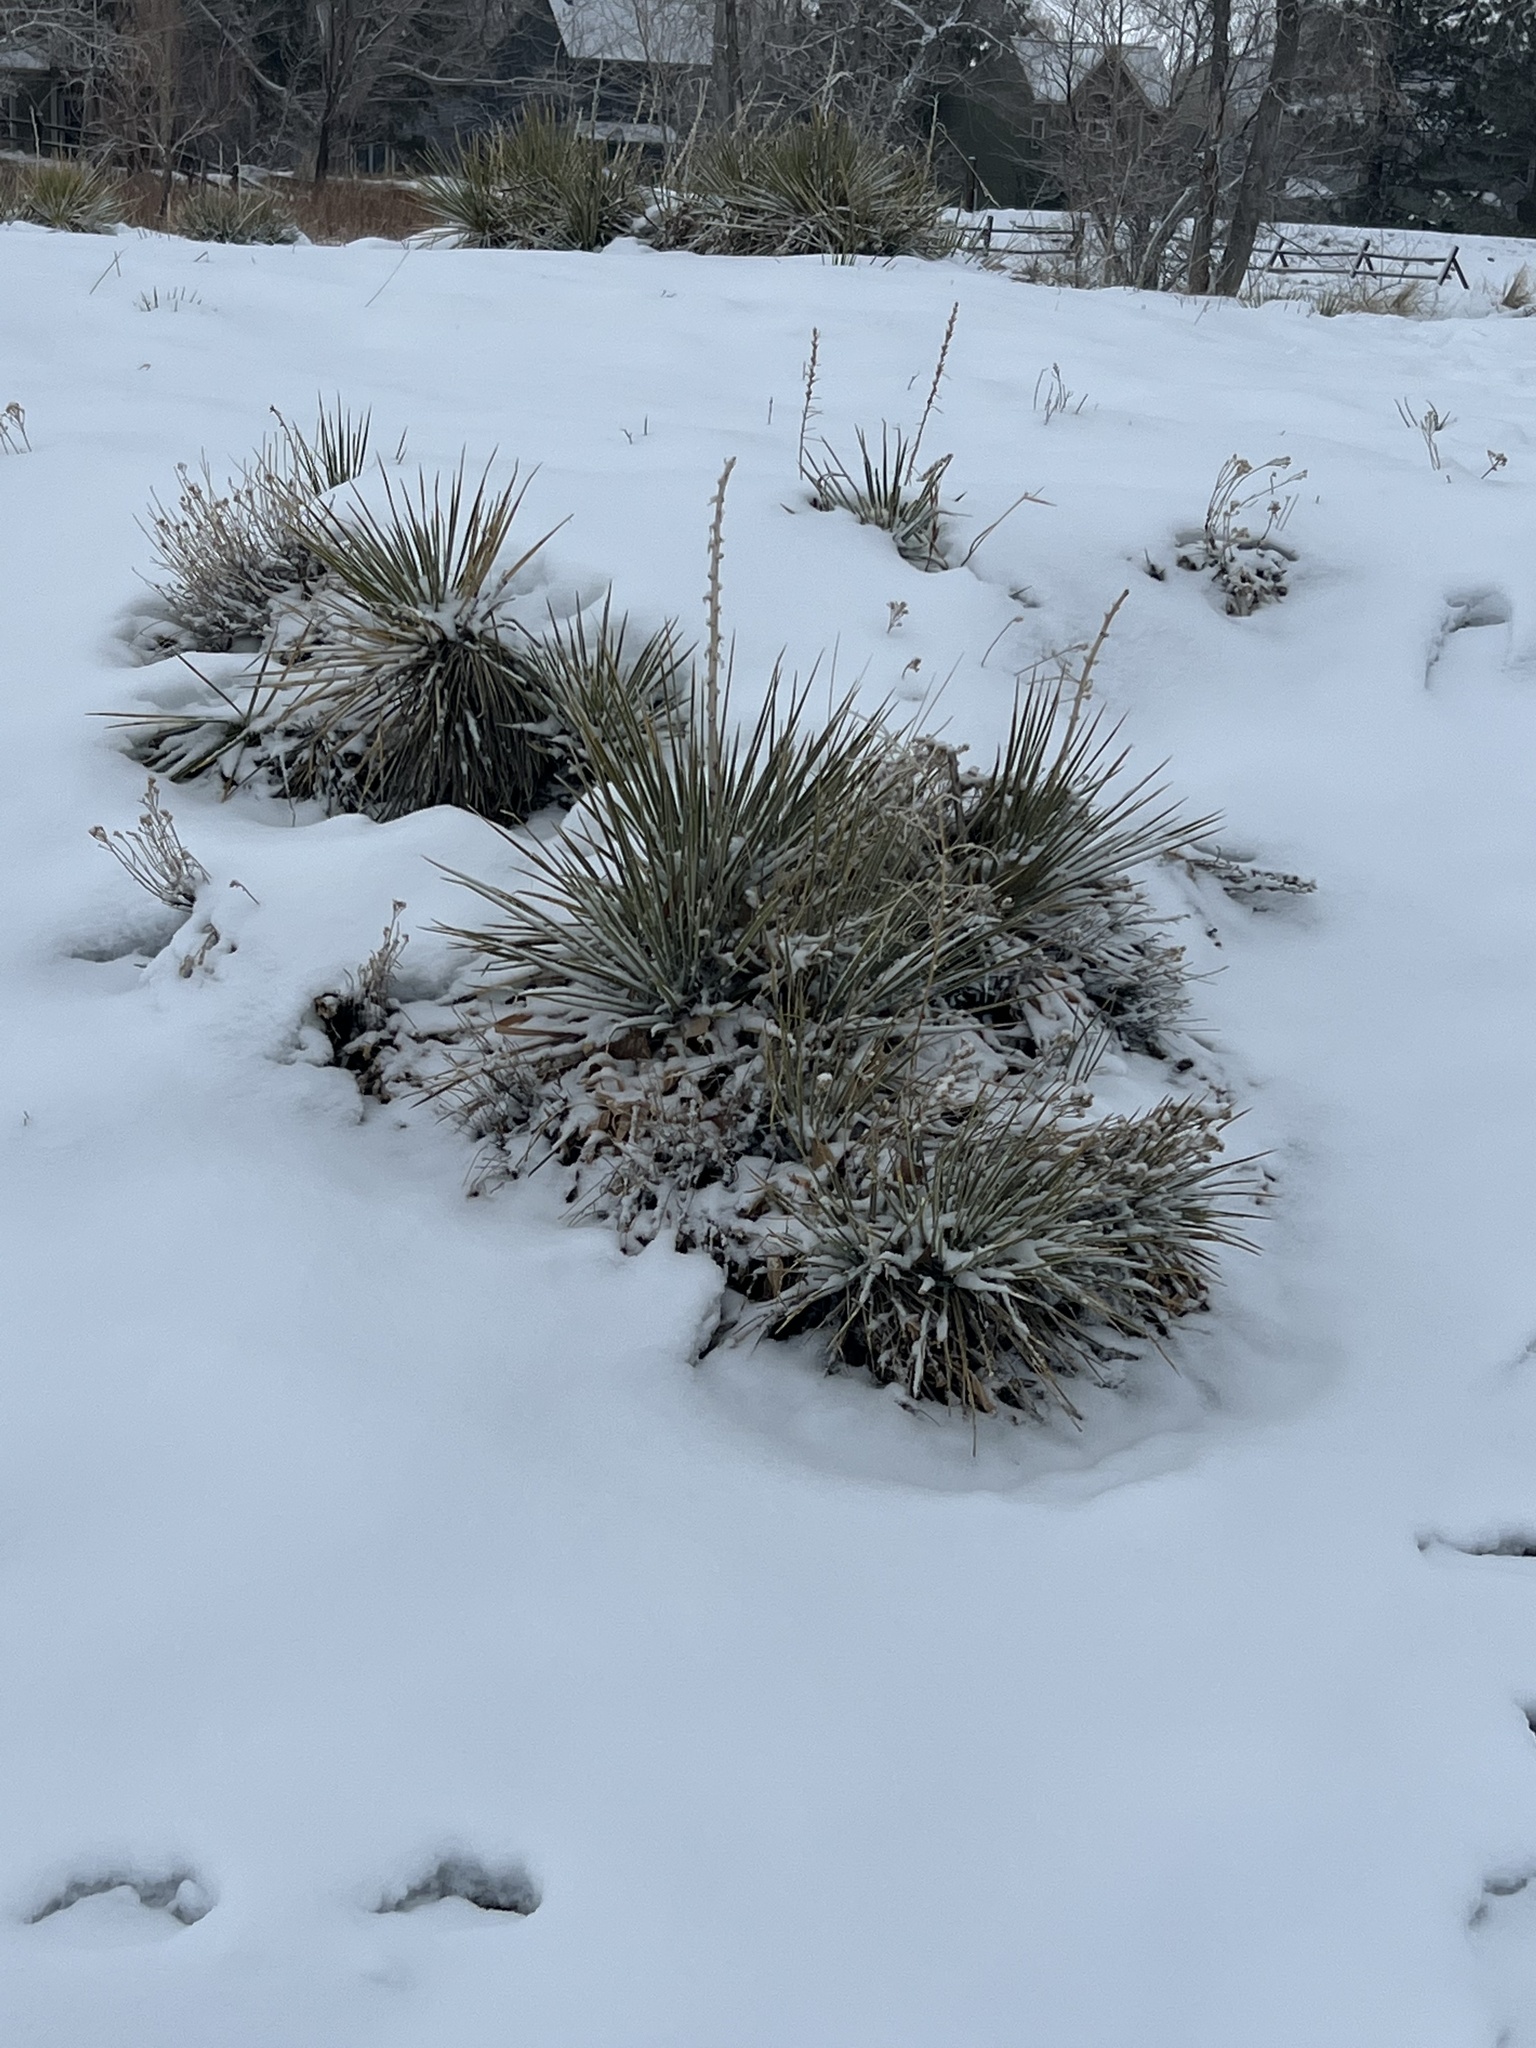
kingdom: Plantae
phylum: Tracheophyta
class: Liliopsida
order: Asparagales
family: Asparagaceae
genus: Yucca
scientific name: Yucca glauca
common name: Great plains yucca
